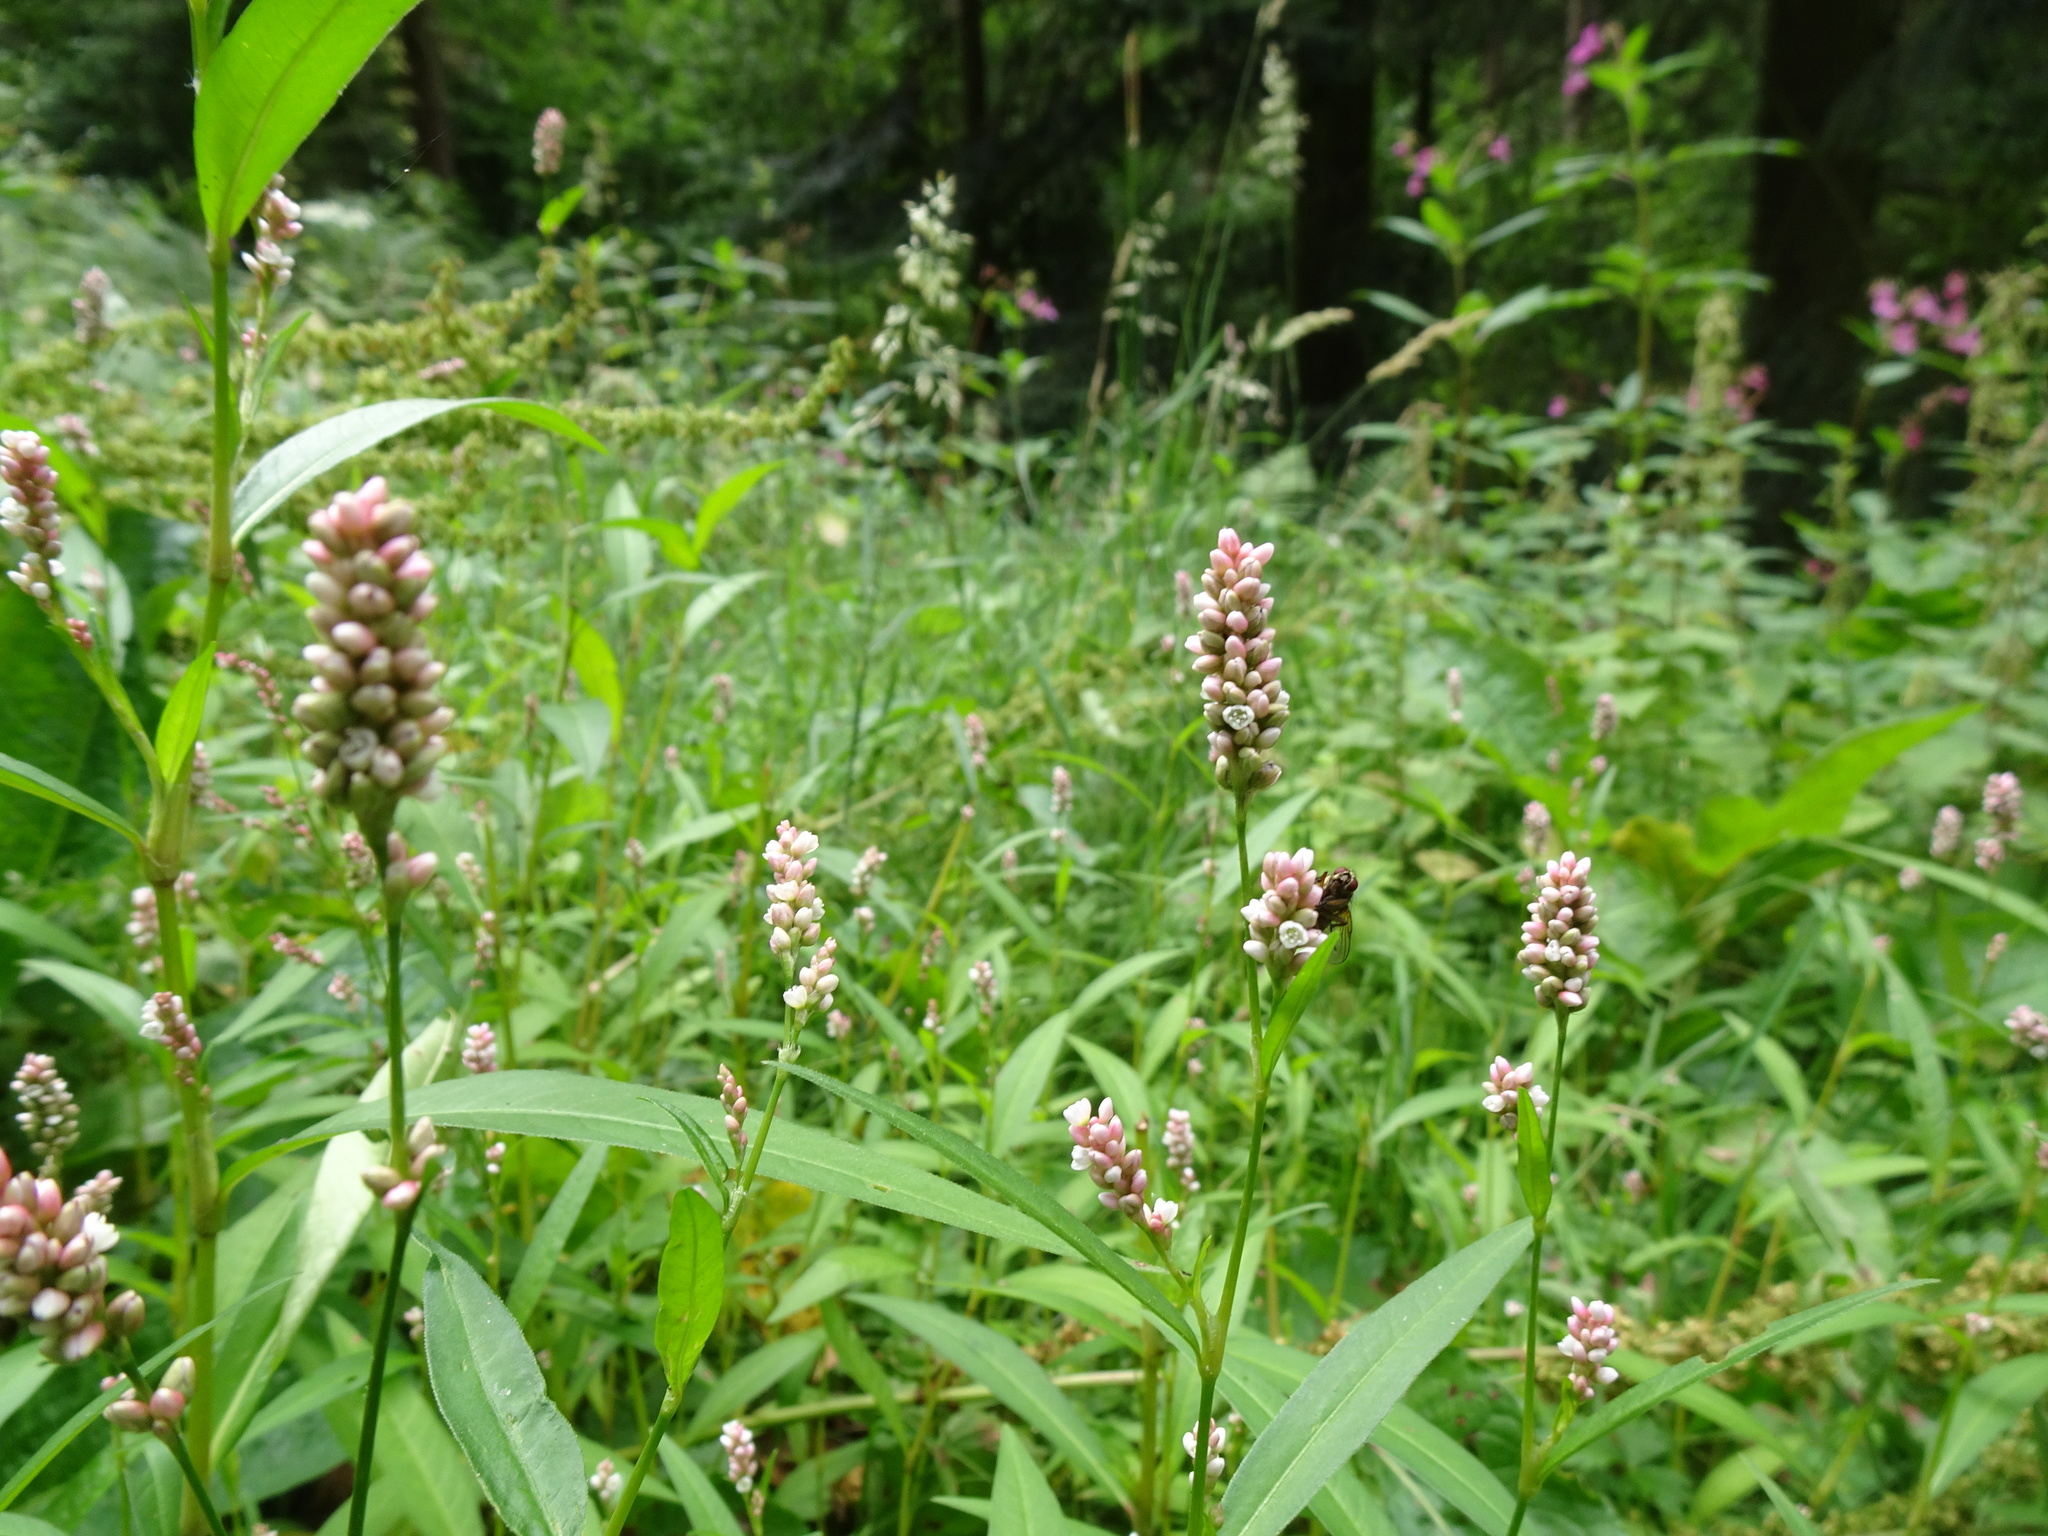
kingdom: Plantae
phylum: Tracheophyta
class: Magnoliopsida
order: Caryophyllales
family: Polygonaceae
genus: Persicaria
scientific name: Persicaria maculosa
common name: Redshank
